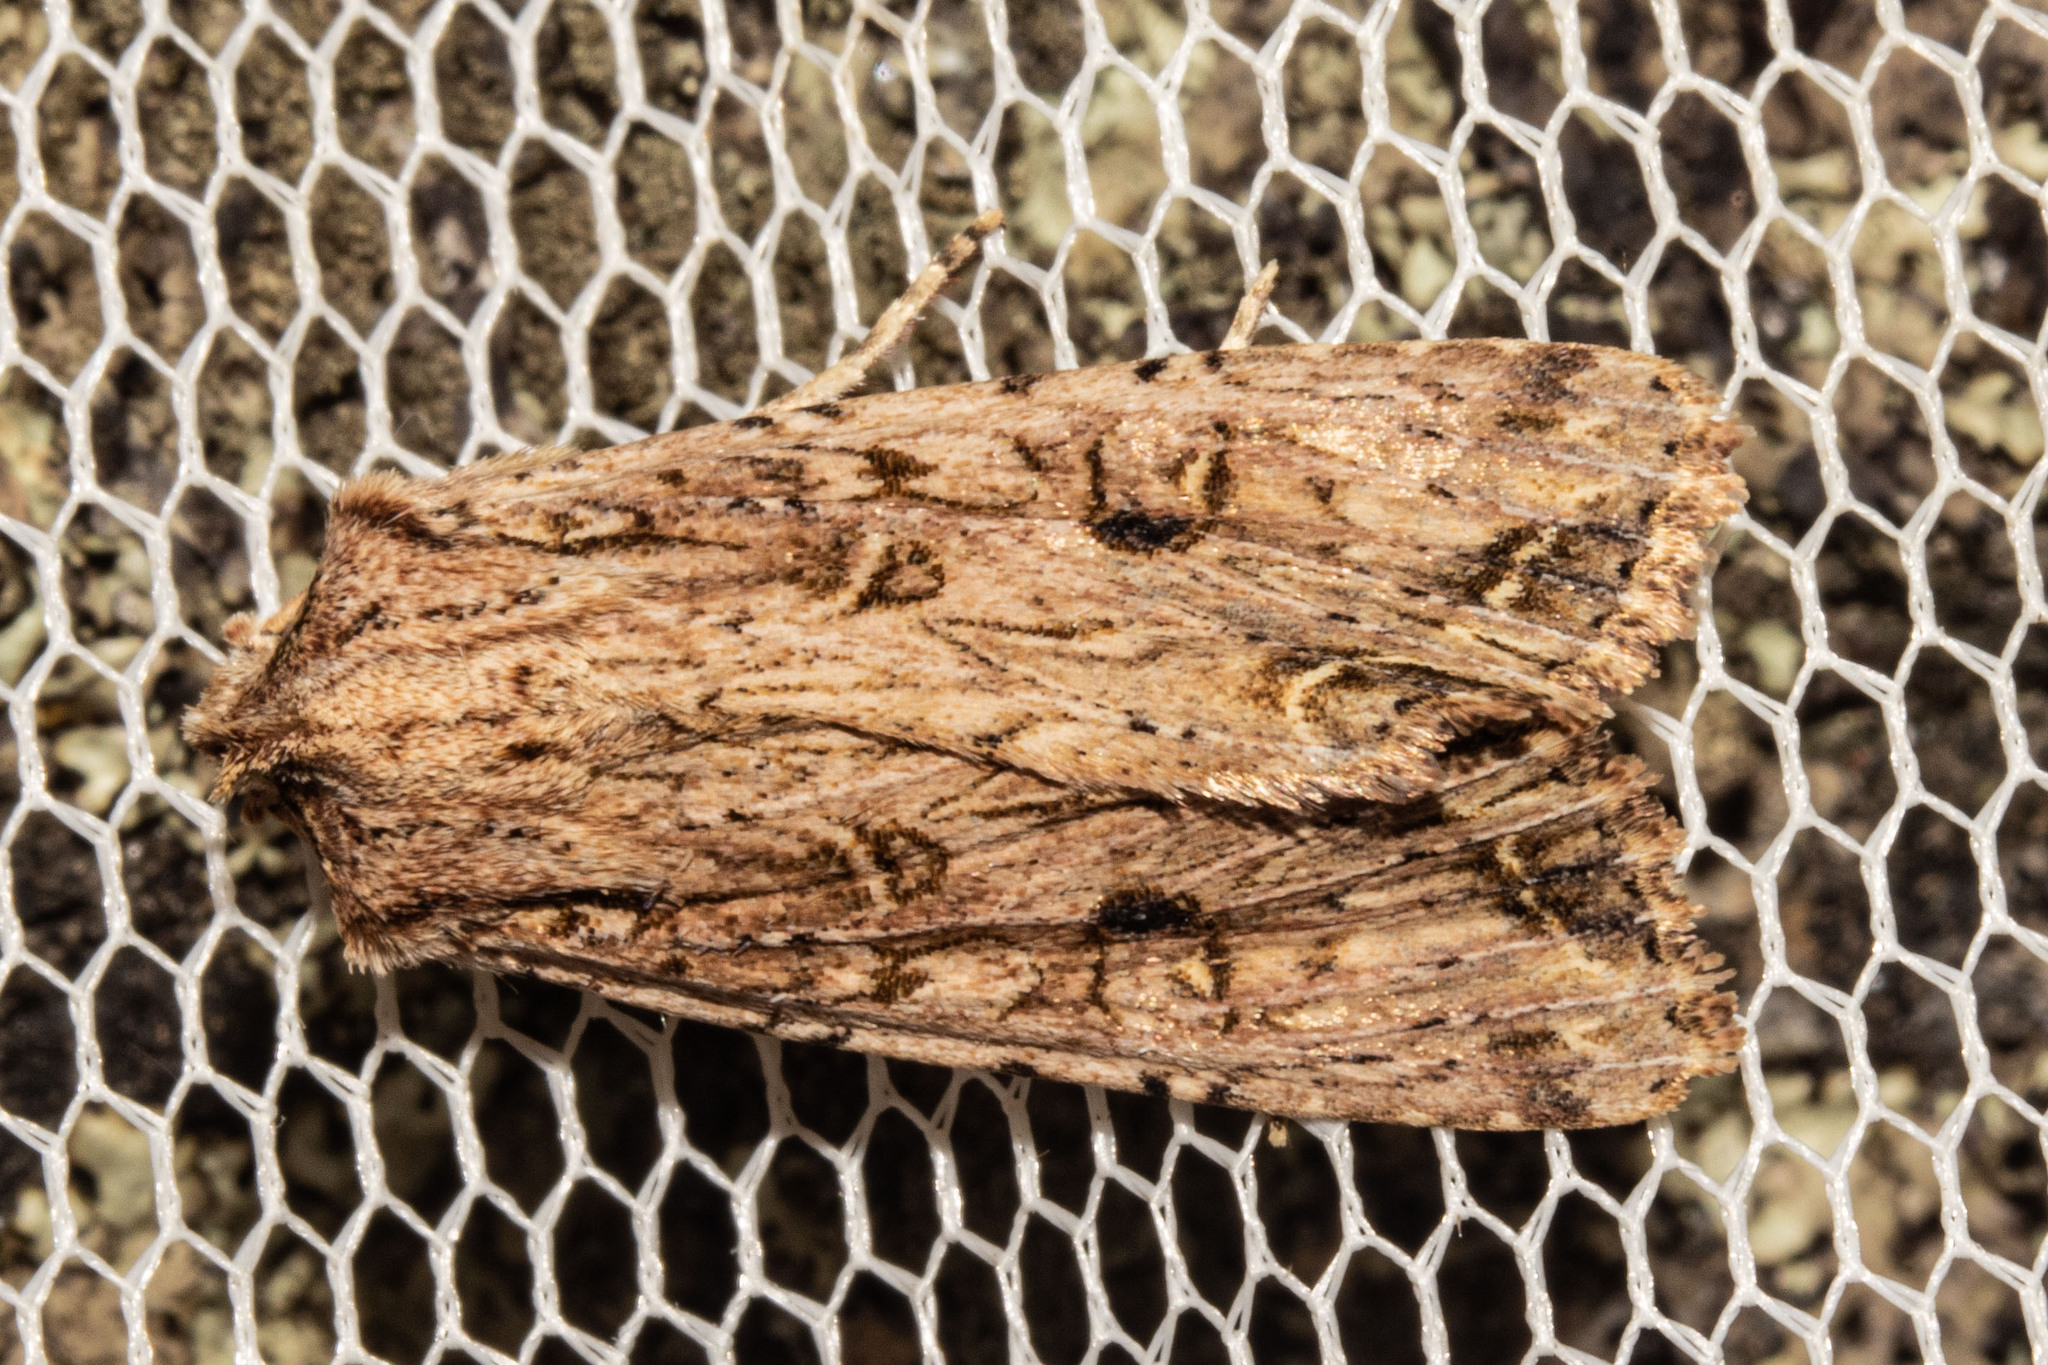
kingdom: Animalia
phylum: Arthropoda
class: Insecta
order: Lepidoptera
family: Noctuidae
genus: Ichneutica
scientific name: Ichneutica lignana
